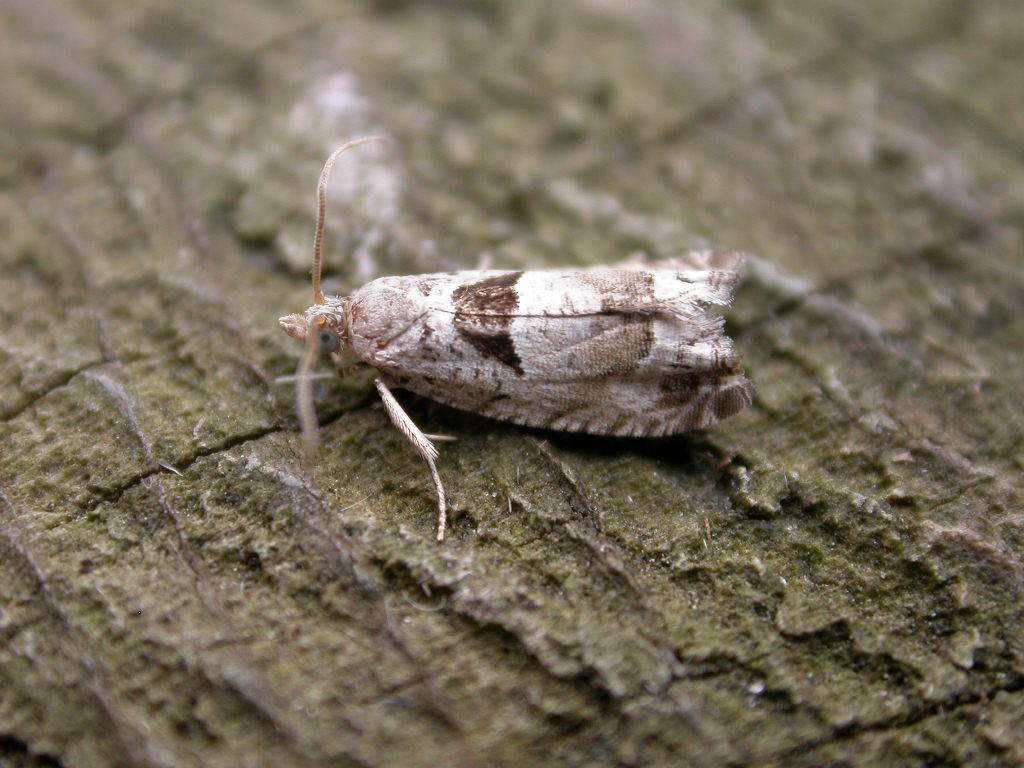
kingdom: Animalia
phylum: Arthropoda
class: Insecta
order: Lepidoptera
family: Tortricidae
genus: Epinotia
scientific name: Epinotia ramella
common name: Small birch bell
